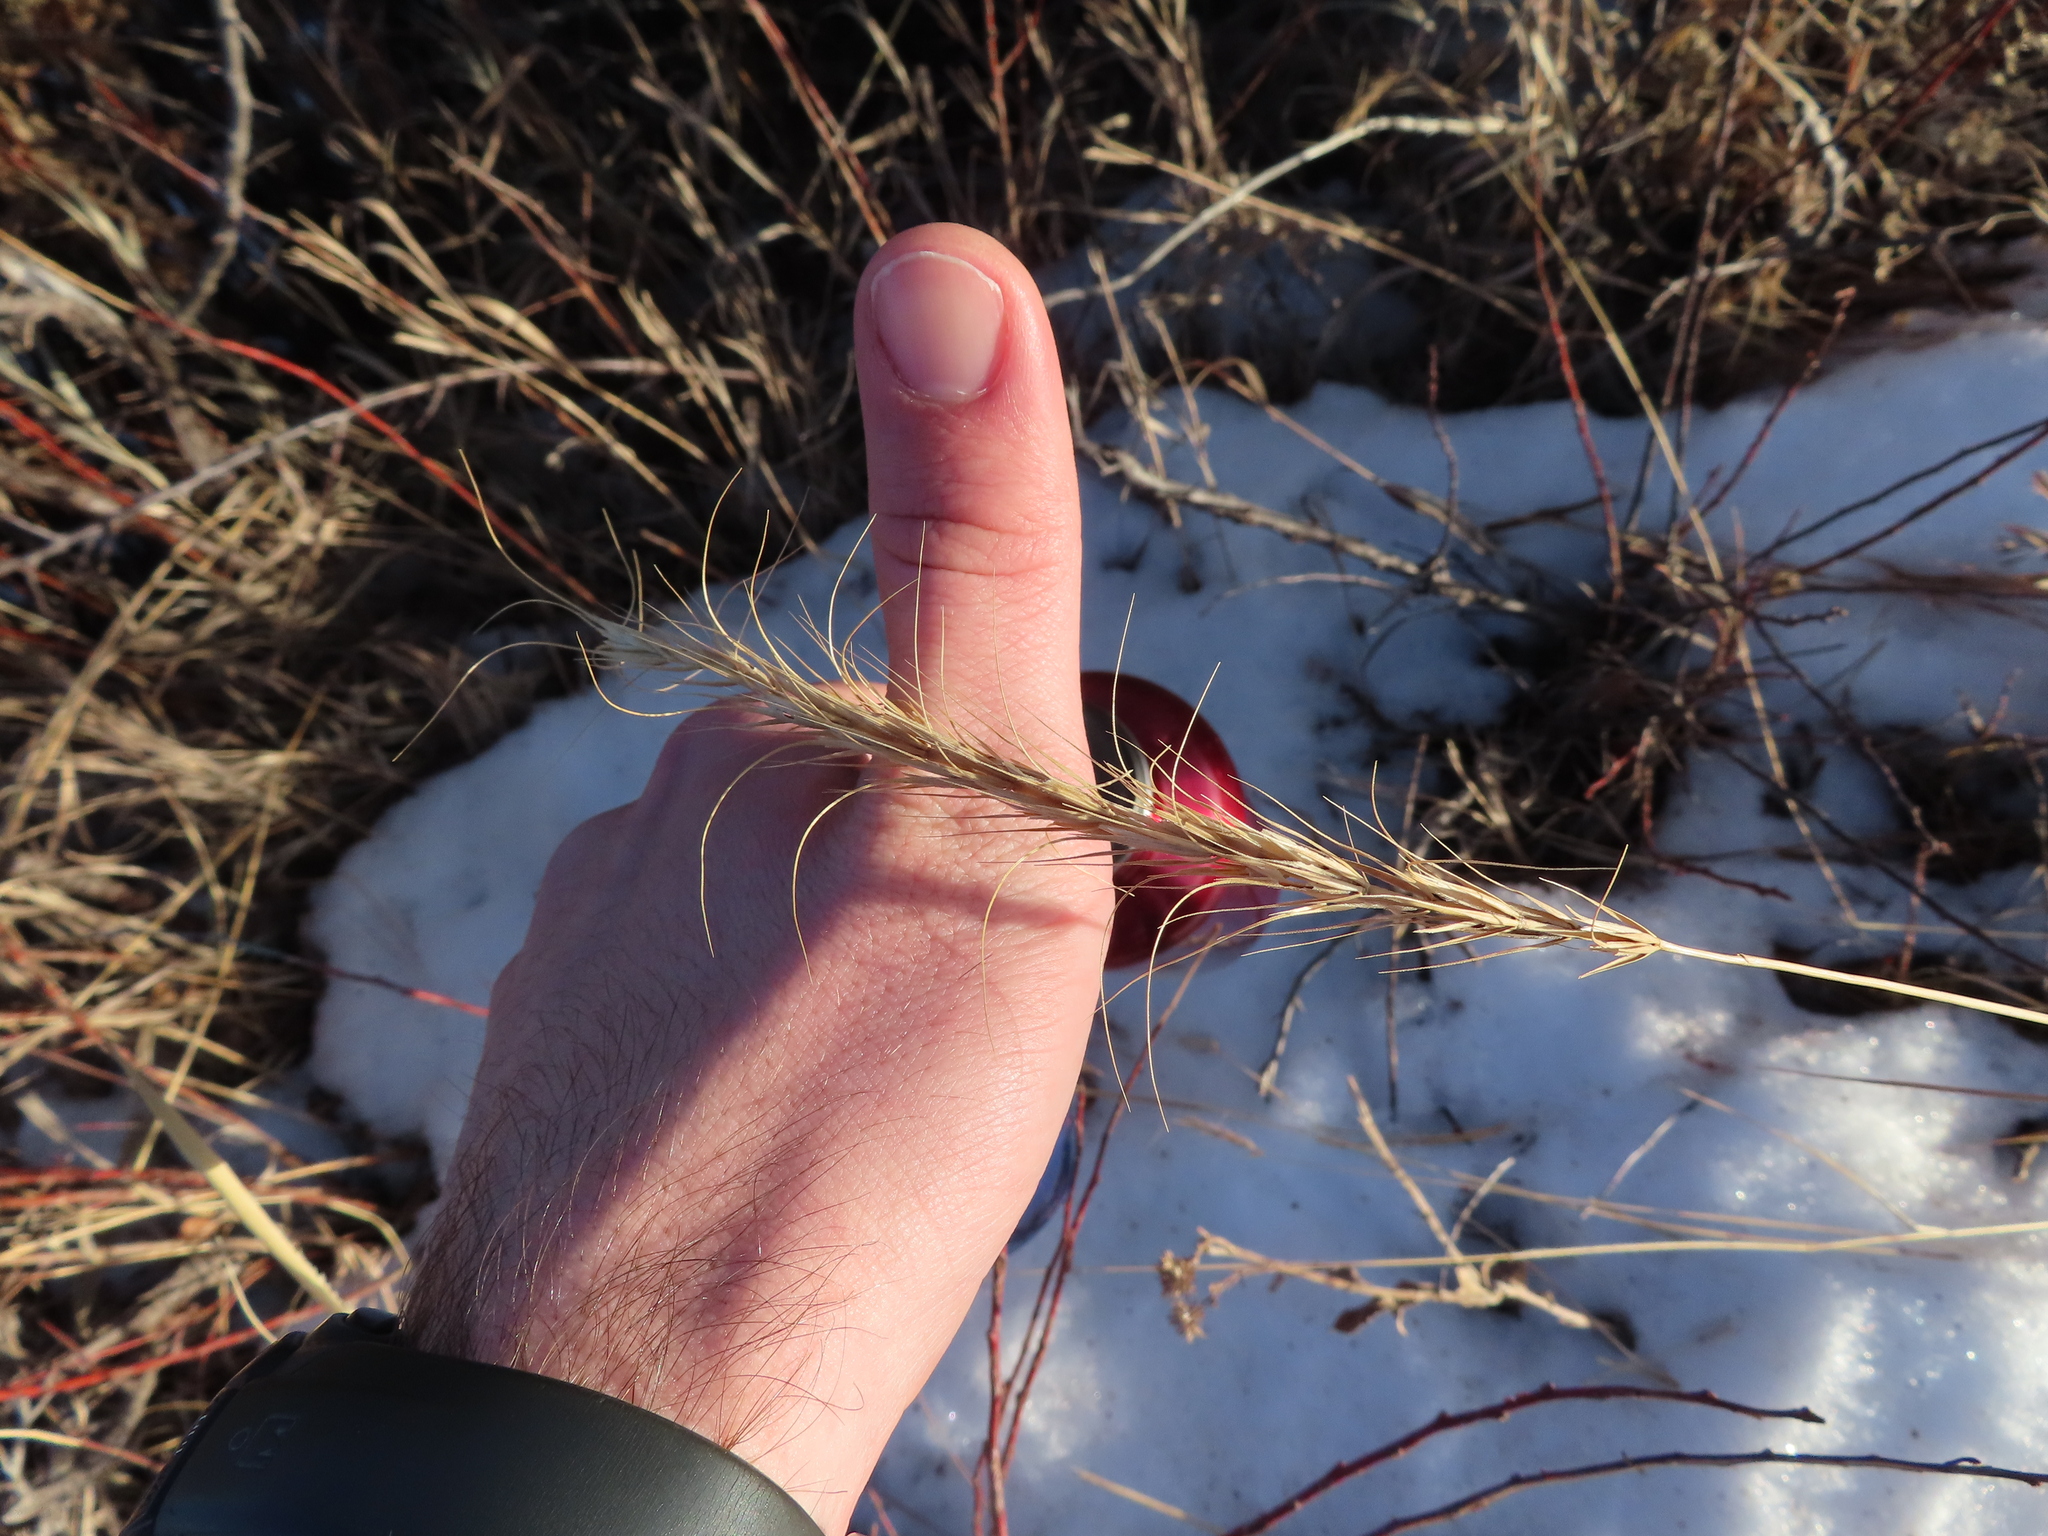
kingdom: Plantae
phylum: Tracheophyta
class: Liliopsida
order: Poales
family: Poaceae
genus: Elymus
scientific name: Elymus canadensis
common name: Canada wild rye
